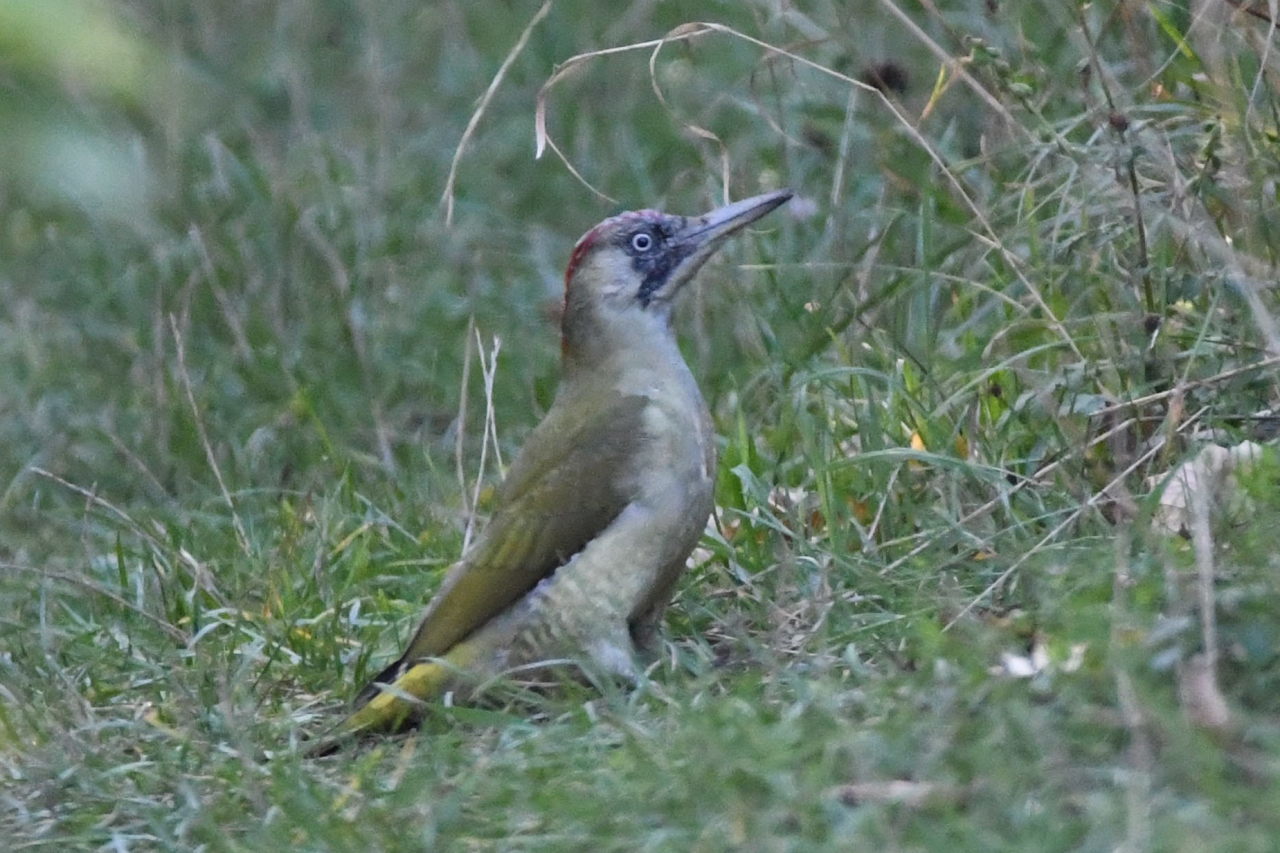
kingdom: Animalia
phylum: Chordata
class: Aves
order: Piciformes
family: Picidae
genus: Picus
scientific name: Picus viridis
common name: European green woodpecker
